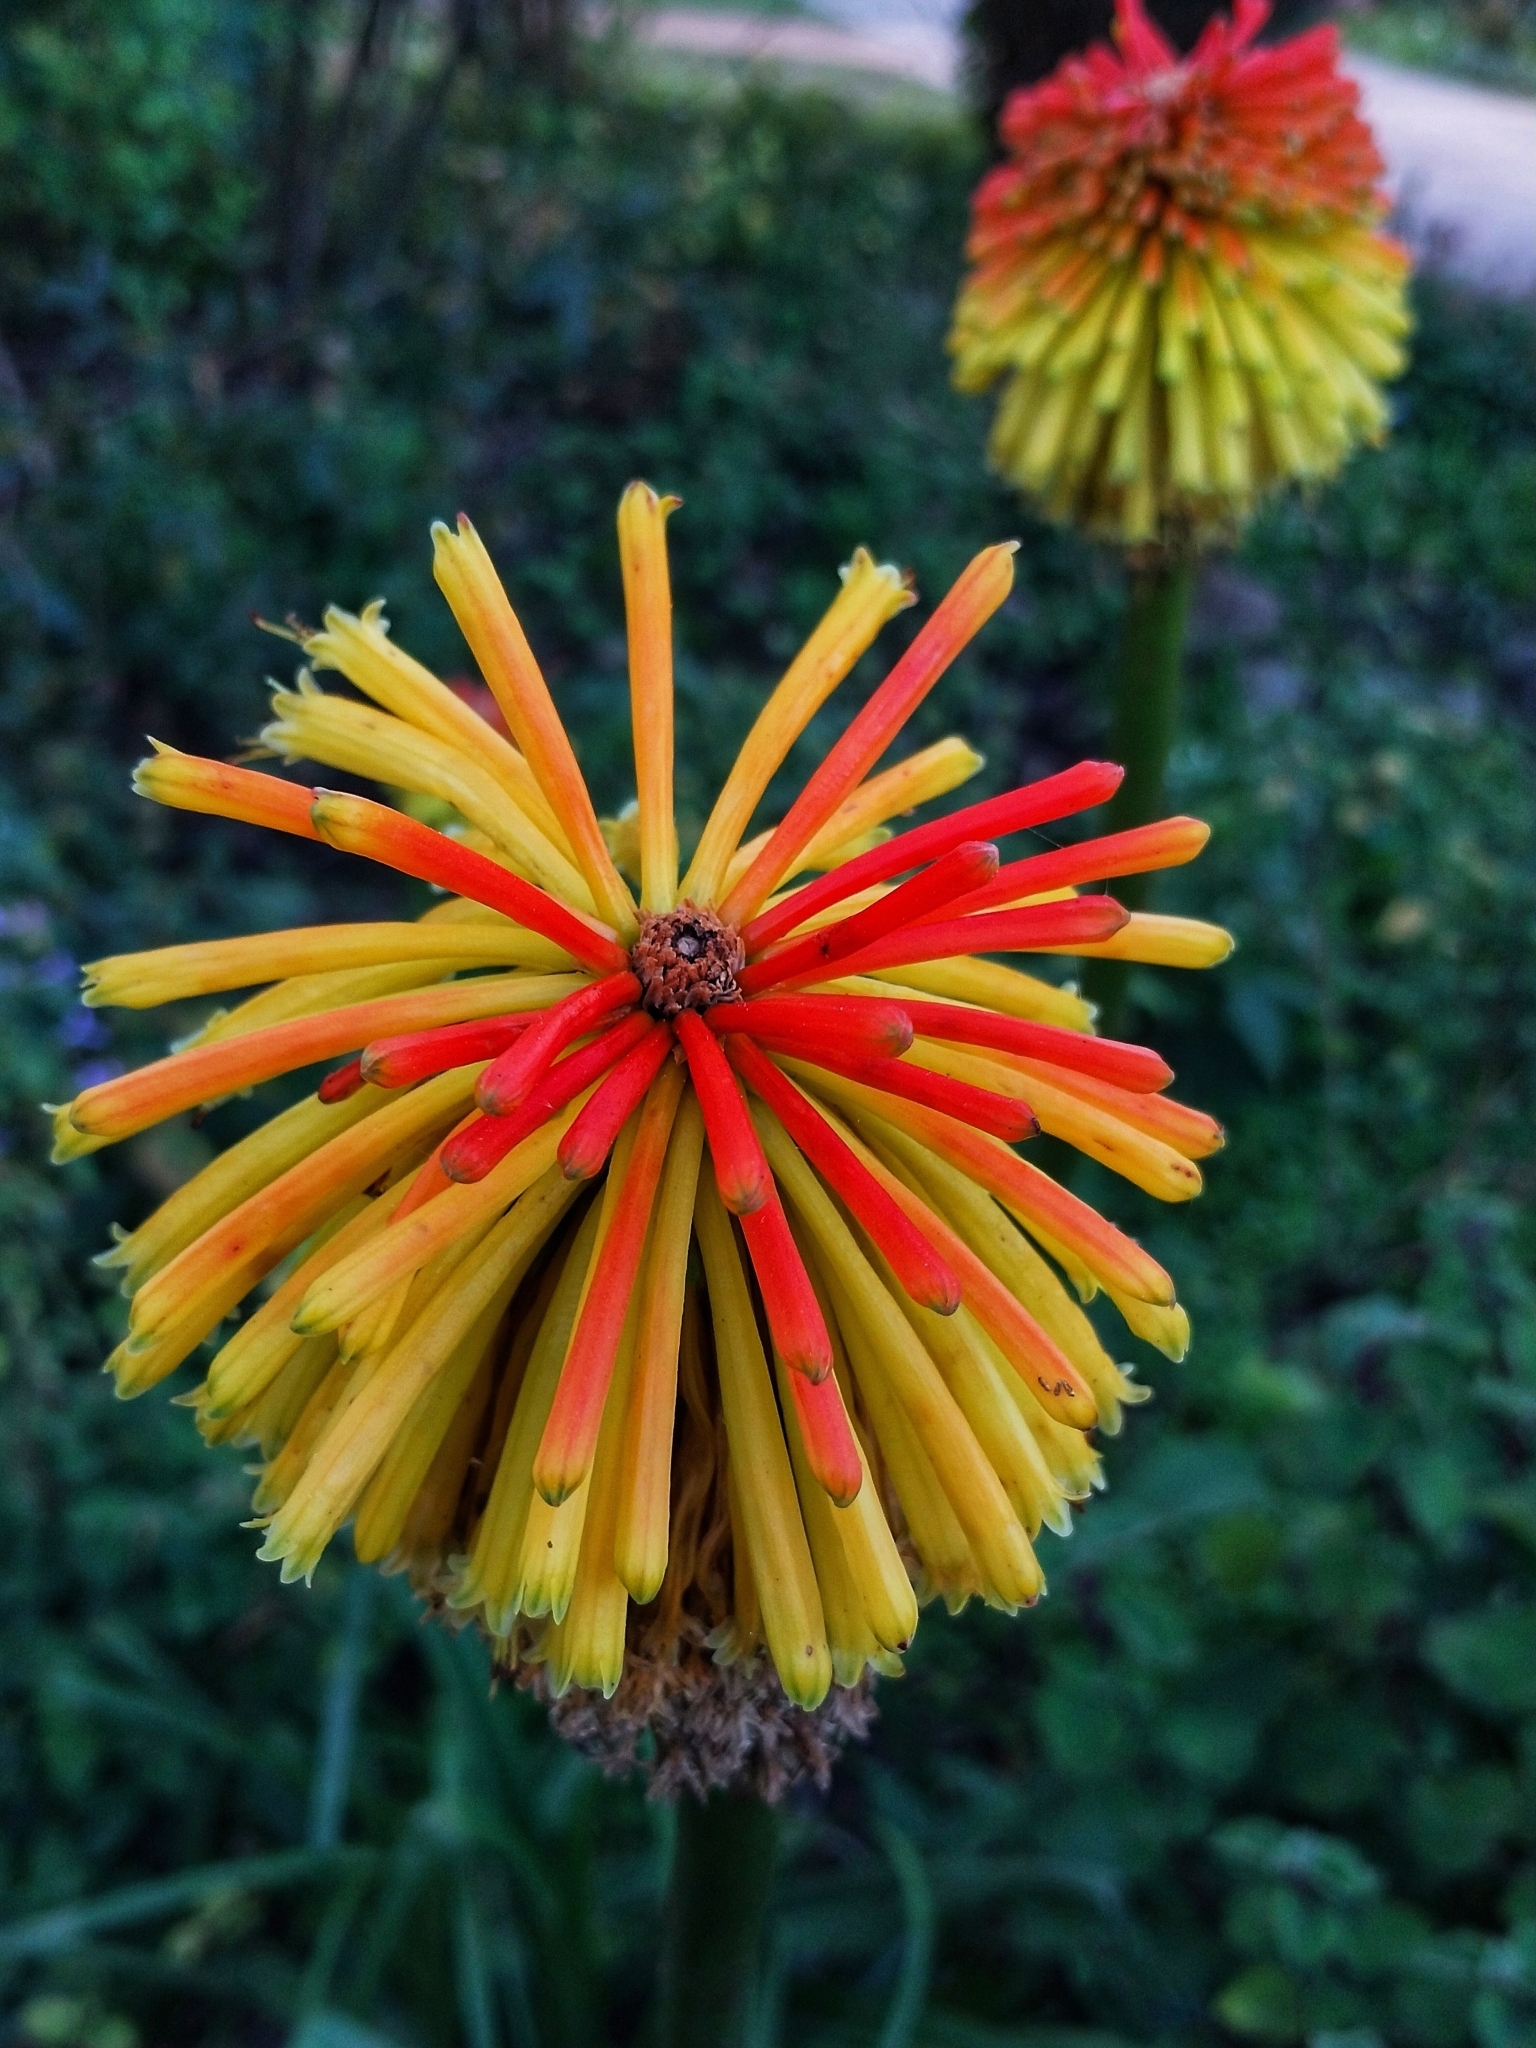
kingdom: Plantae
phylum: Tracheophyta
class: Liliopsida
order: Asparagales
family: Asphodelaceae
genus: Kniphofia
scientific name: Kniphofia uvaria
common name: Red-hot-poker
